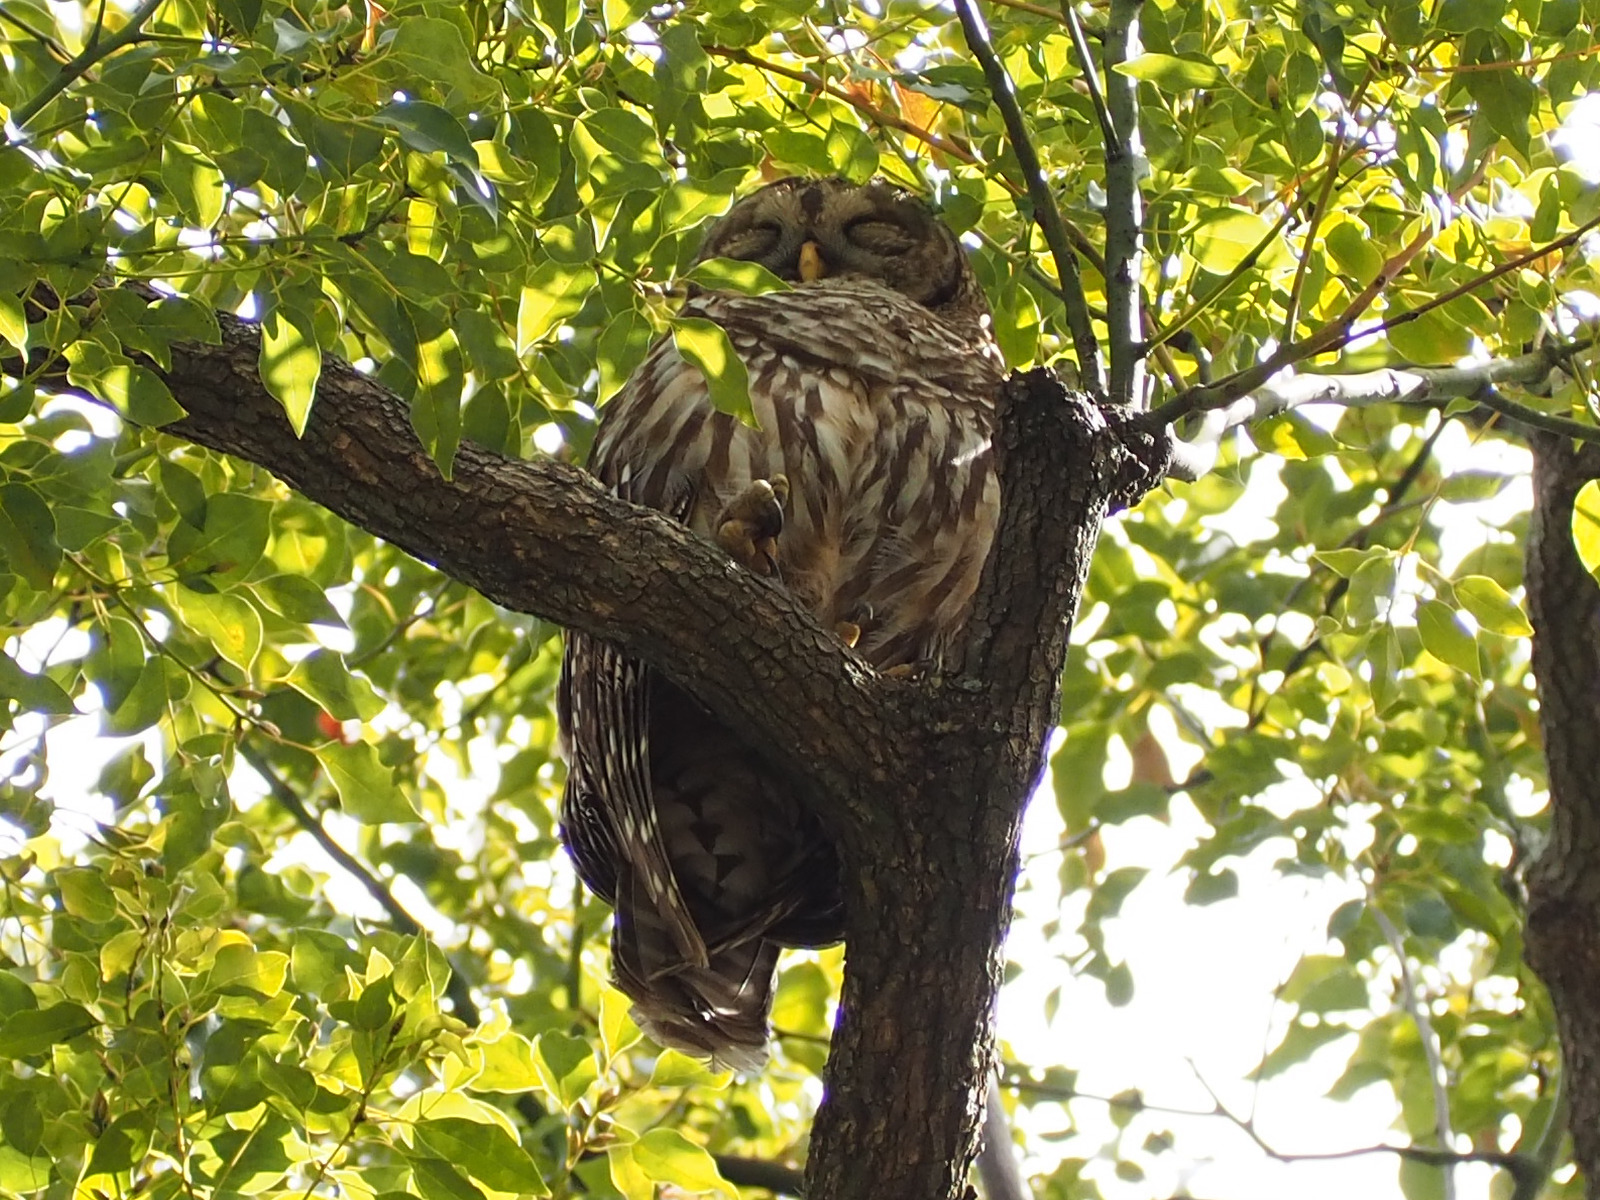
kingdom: Animalia
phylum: Chordata
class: Aves
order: Strigiformes
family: Strigidae
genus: Strix
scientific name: Strix varia
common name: Barred owl
